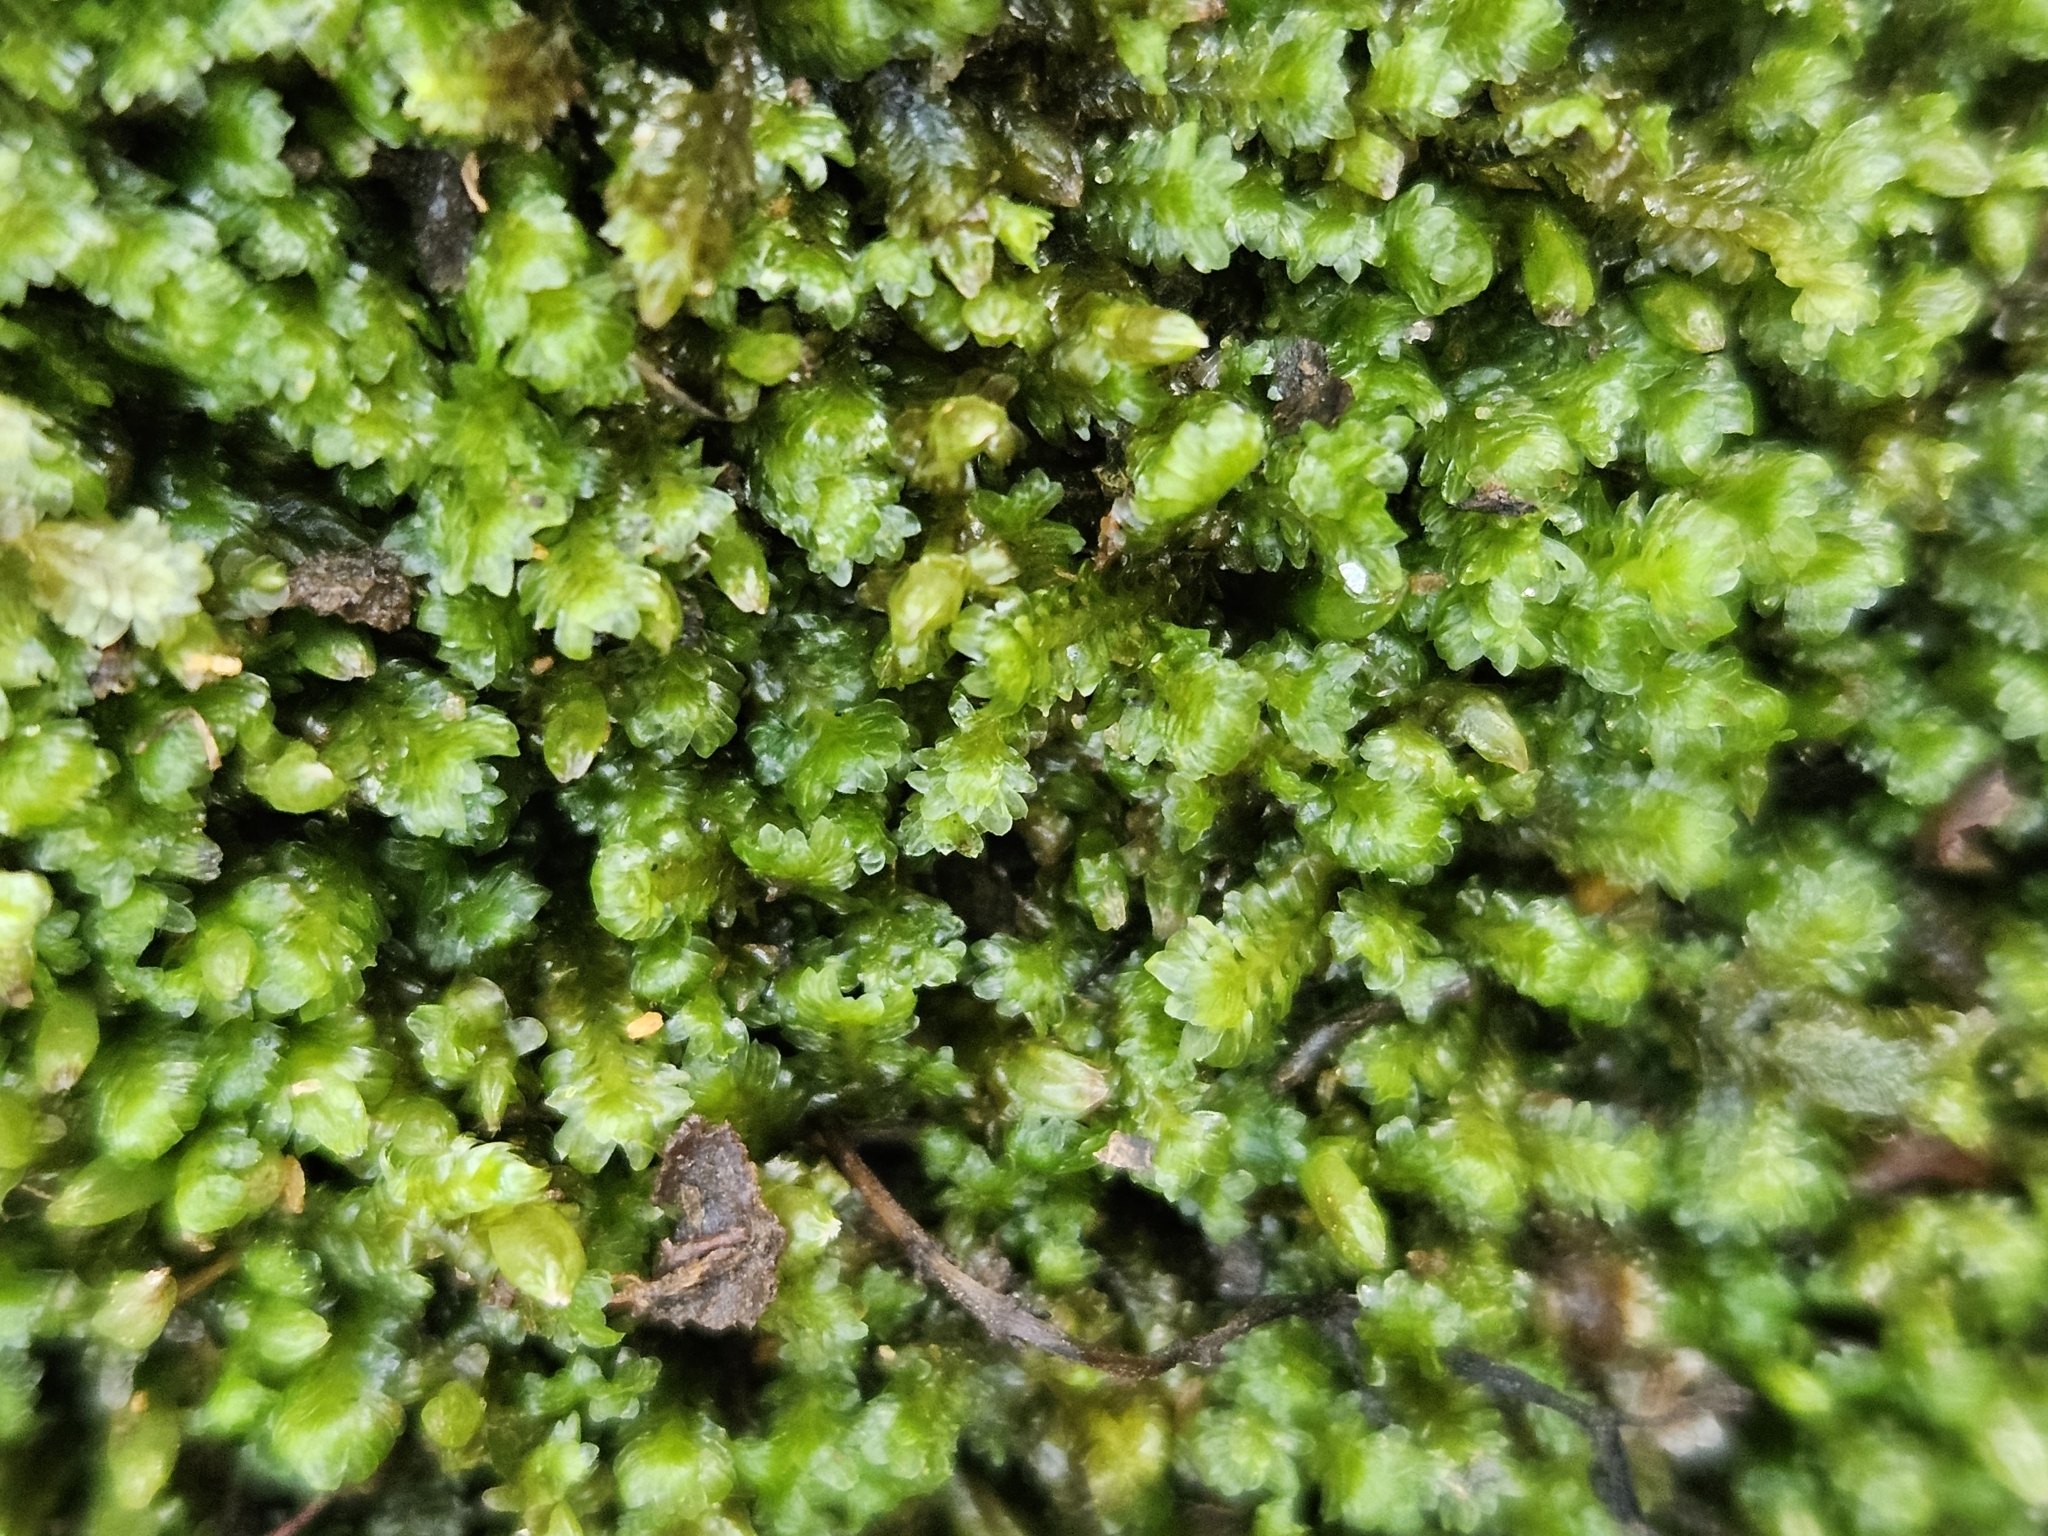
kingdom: Plantae
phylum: Marchantiophyta
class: Jungermanniopsida
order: Jungermanniales
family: Scapaniaceae
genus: Diplophyllum
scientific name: Diplophyllum albicans
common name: White earwort
